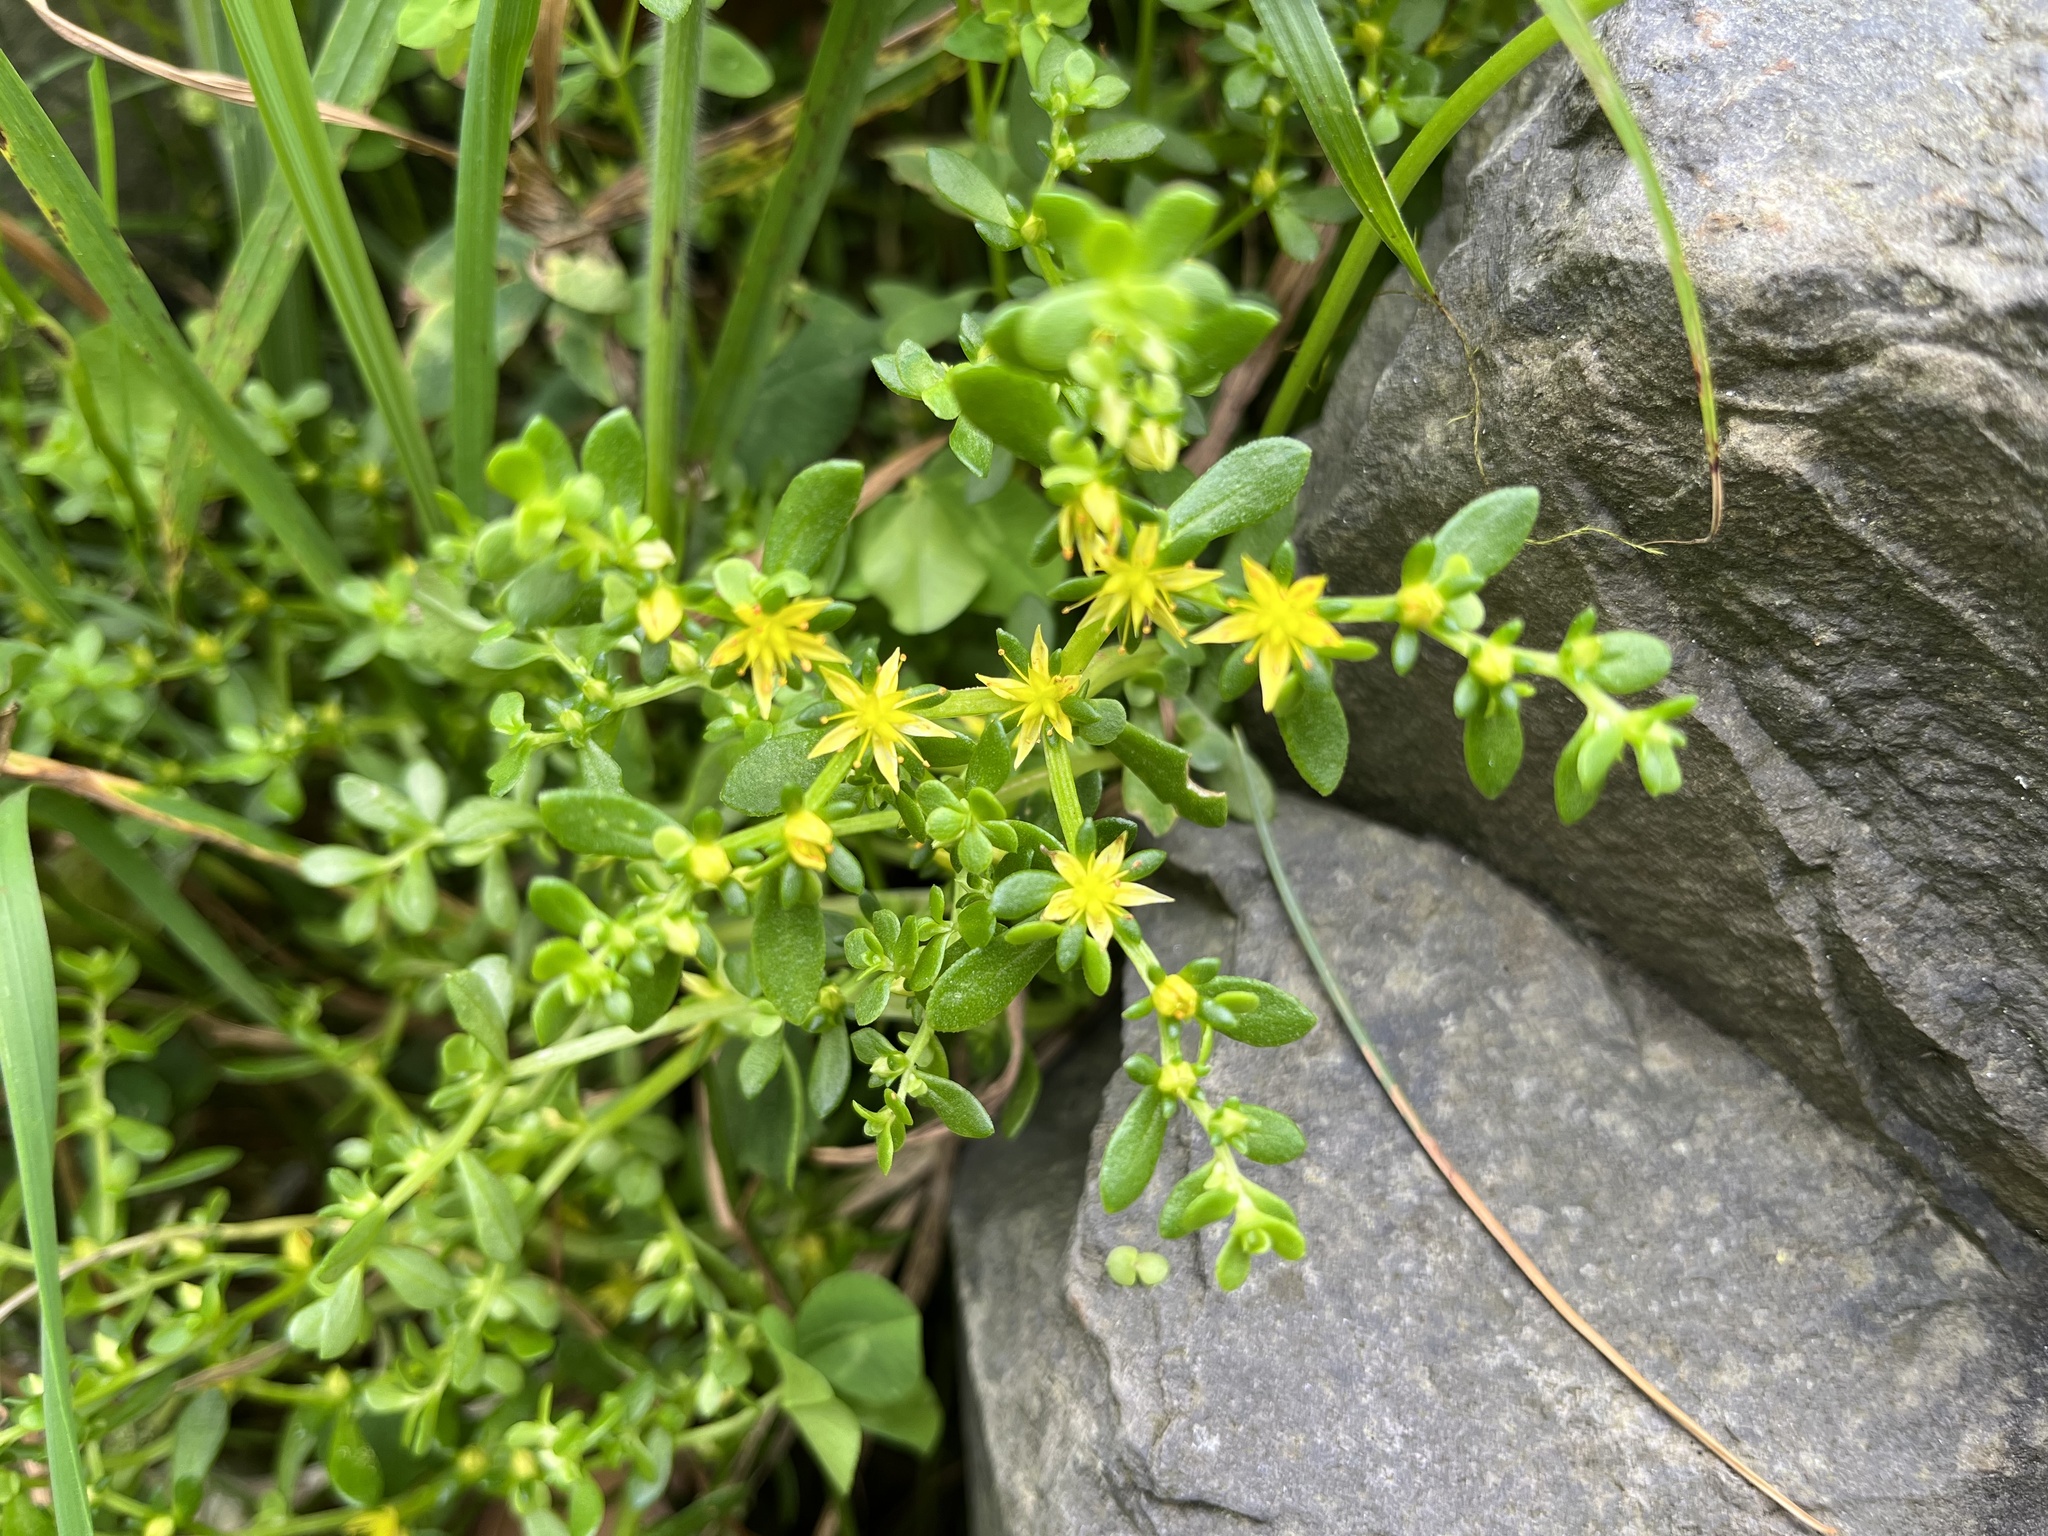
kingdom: Plantae
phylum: Tracheophyta
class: Magnoliopsida
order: Saxifragales
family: Crassulaceae
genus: Sedum
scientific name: Sedum bulbiferum
